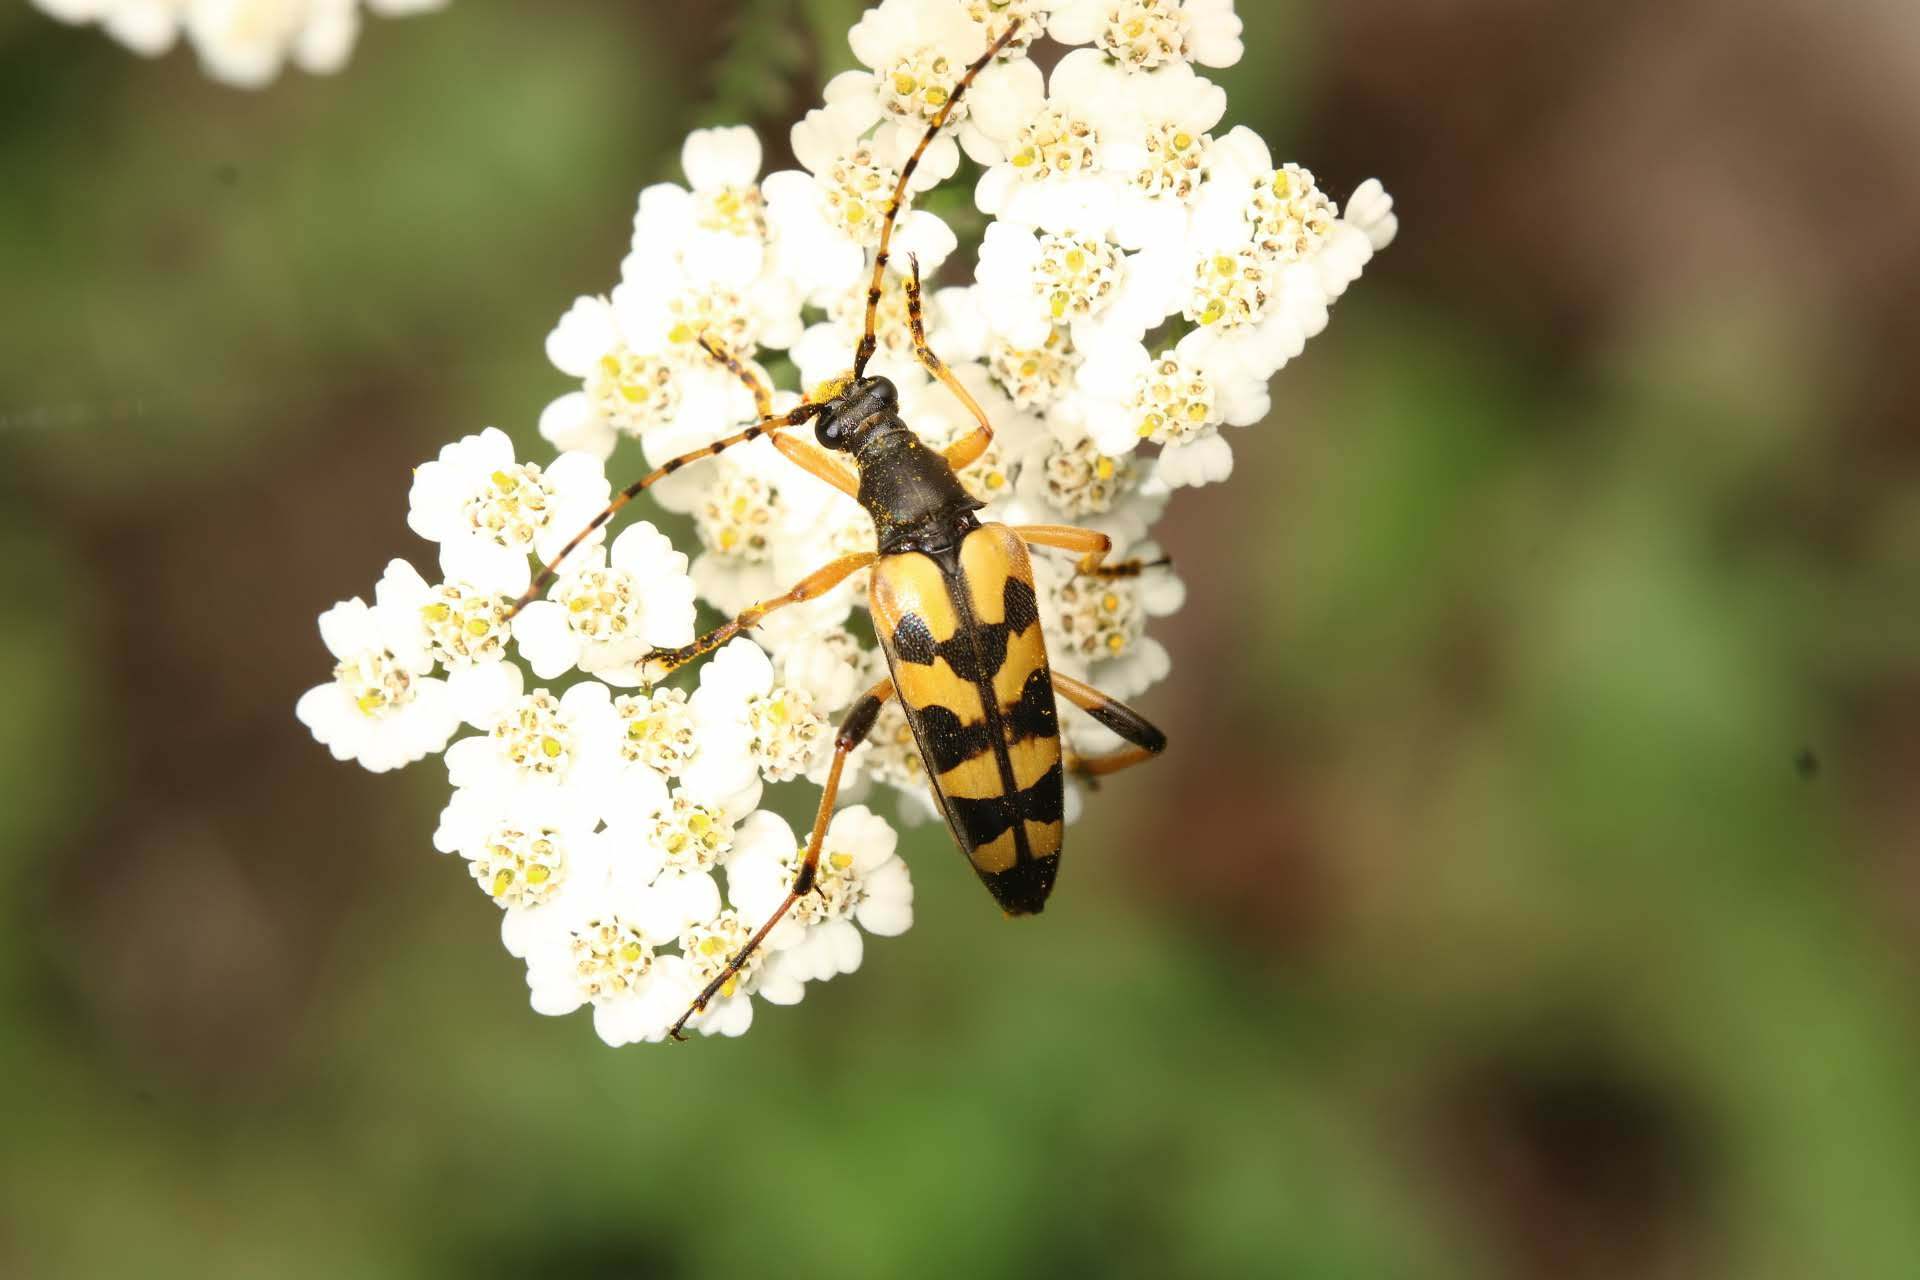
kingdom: Animalia
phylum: Arthropoda
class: Insecta
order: Coleoptera
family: Cerambycidae
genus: Rutpela
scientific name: Rutpela maculata
